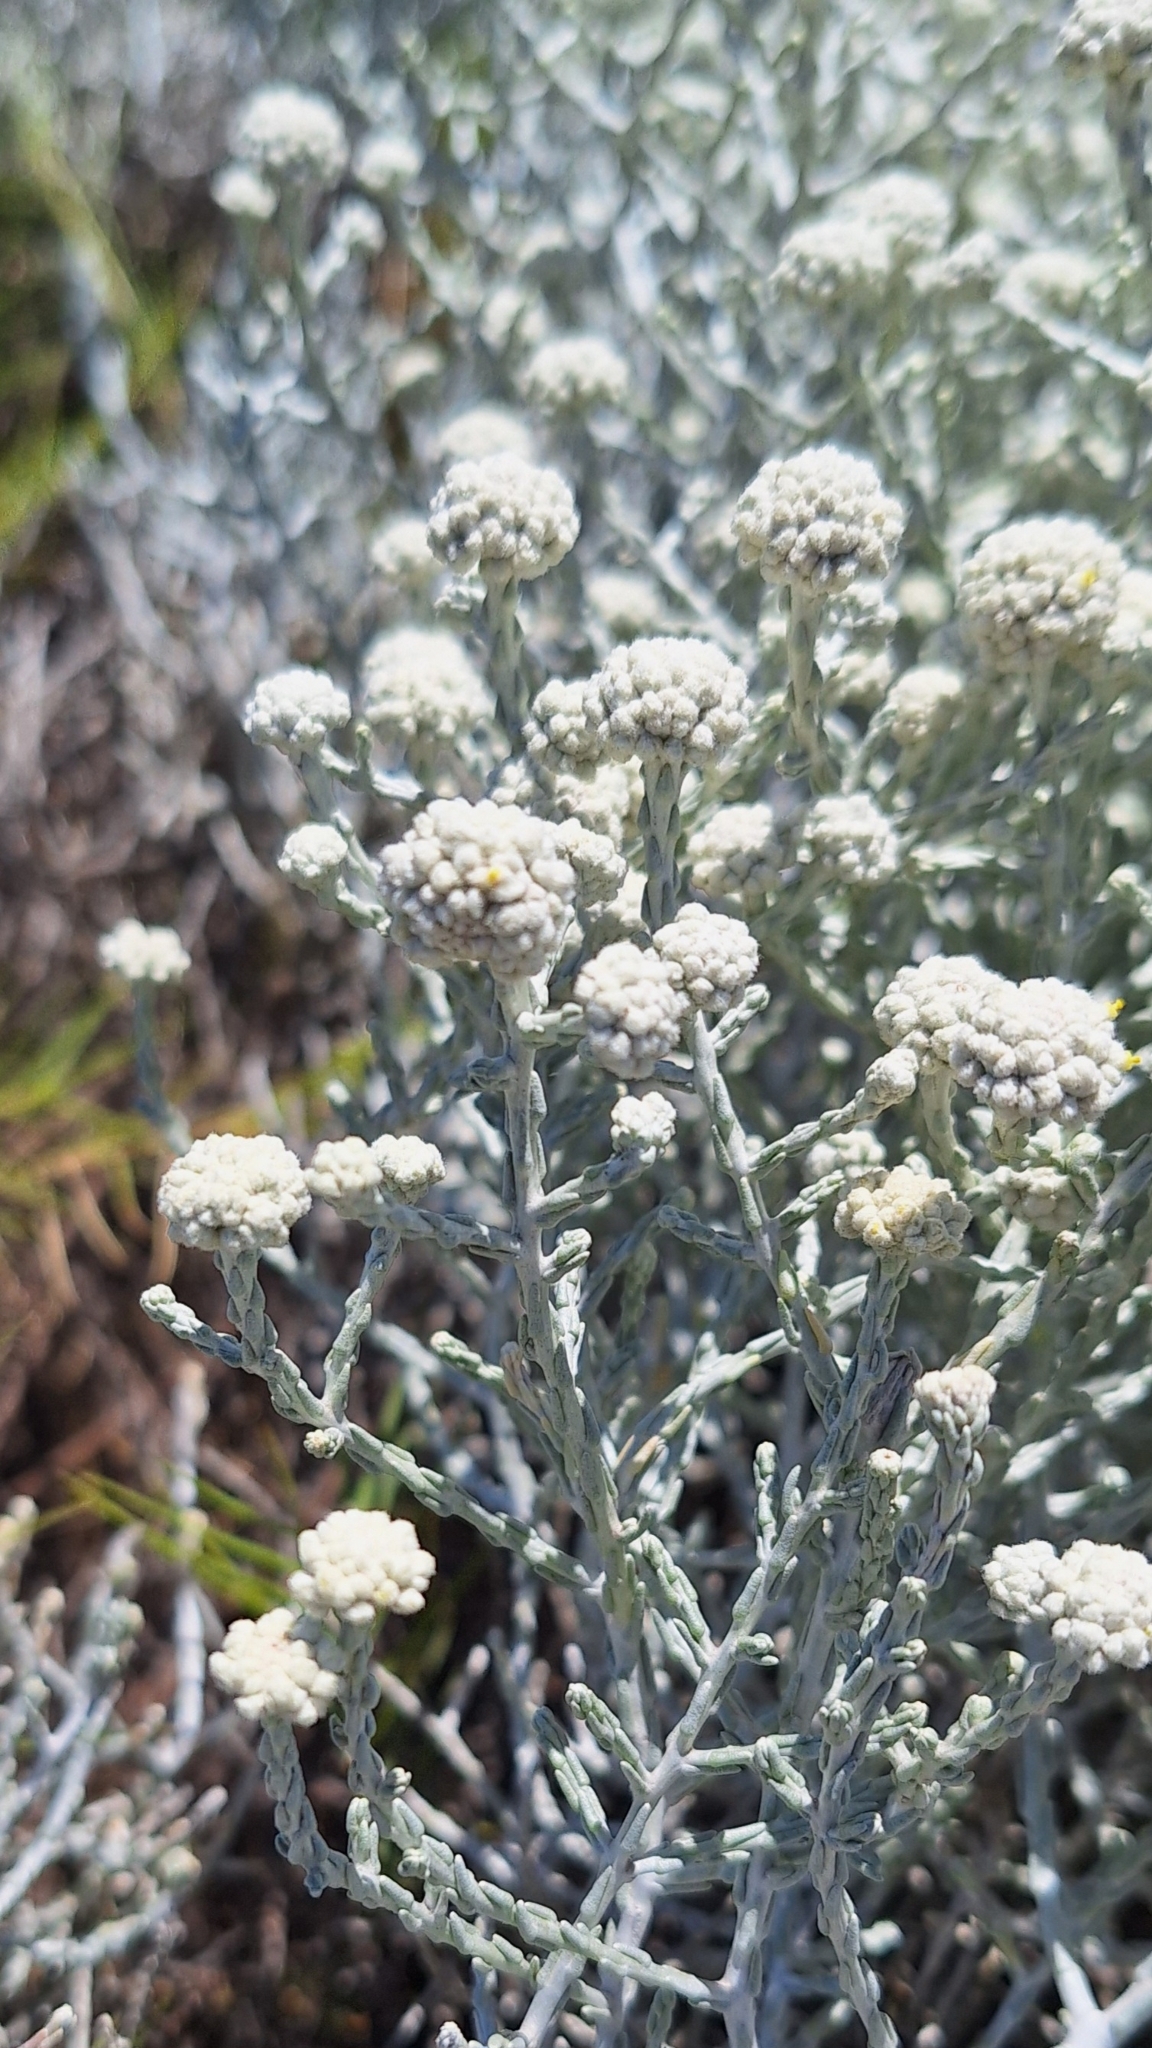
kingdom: Plantae
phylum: Tracheophyta
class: Magnoliopsida
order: Asterales
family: Asteraceae
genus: Calocephalus
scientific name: Calocephalus brownii
